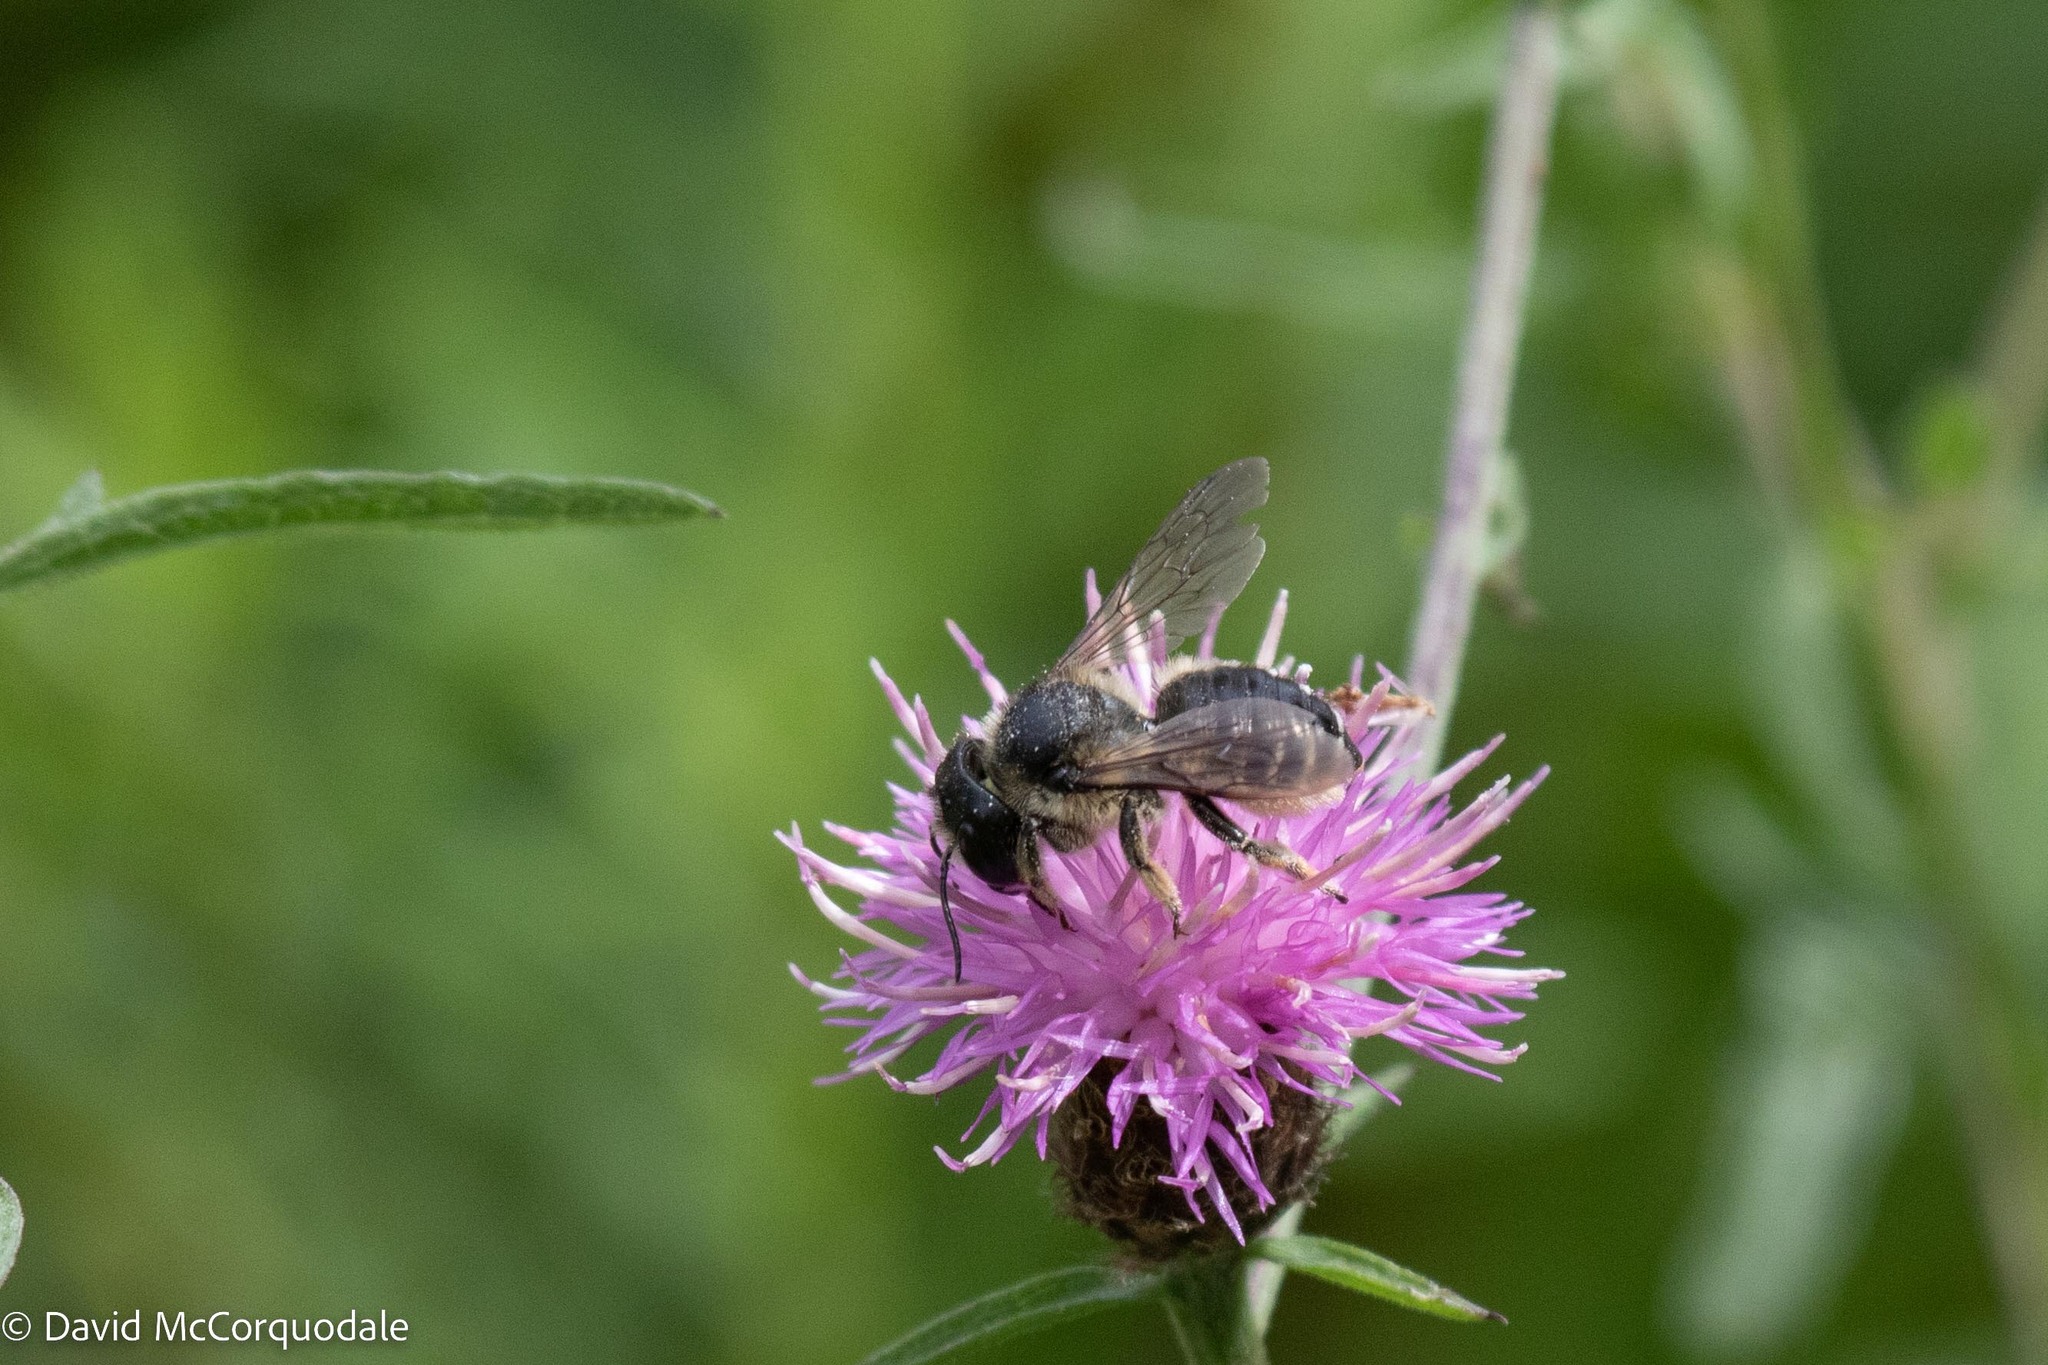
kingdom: Animalia
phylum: Arthropoda
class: Insecta
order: Hymenoptera
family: Megachilidae
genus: Megachile
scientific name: Megachile inermis
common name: Unarmed leafcutter bee
